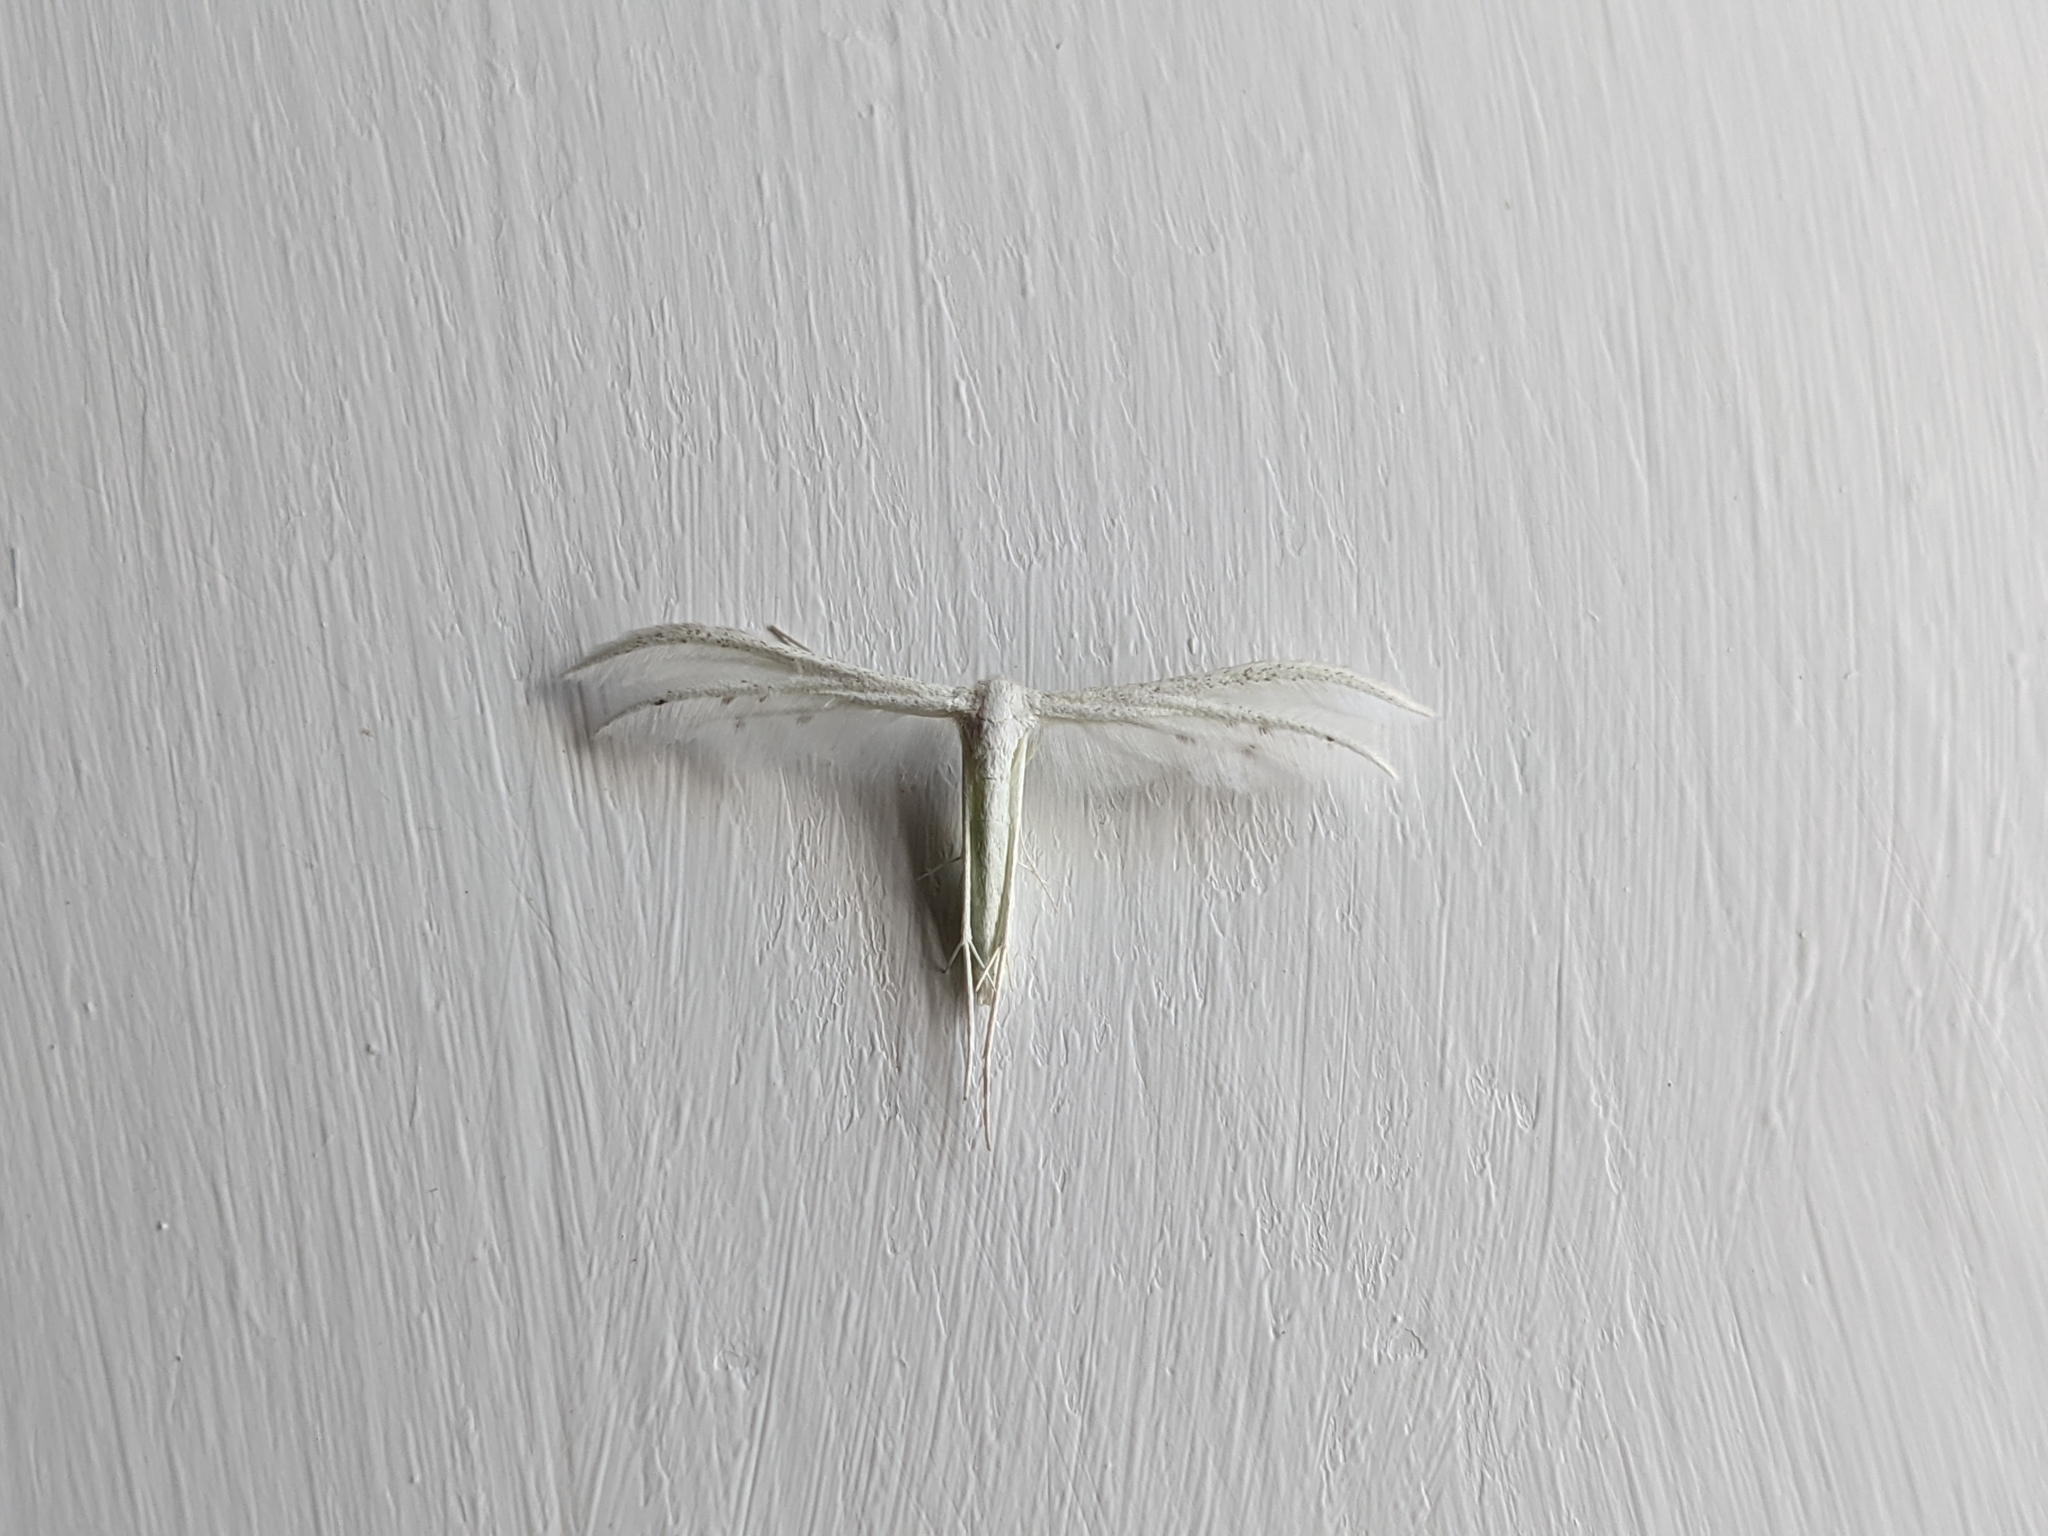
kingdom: Animalia
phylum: Arthropoda
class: Insecta
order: Lepidoptera
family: Pterophoridae
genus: Pterophorus
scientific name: Pterophorus pentadactyla
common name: White plume moth
